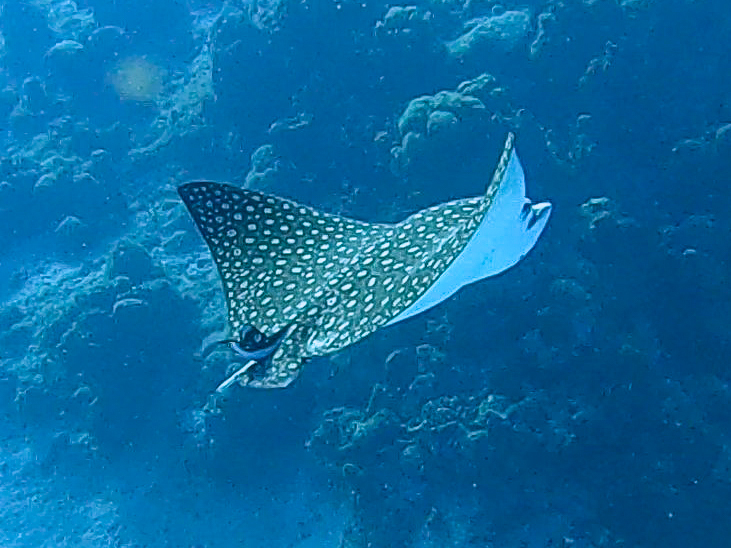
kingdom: Animalia
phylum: Chordata
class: Elasmobranchii
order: Myliobatiformes
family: Myliobatidae
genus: Aetobatus
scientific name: Aetobatus narinari
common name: Spotted eagle ray
